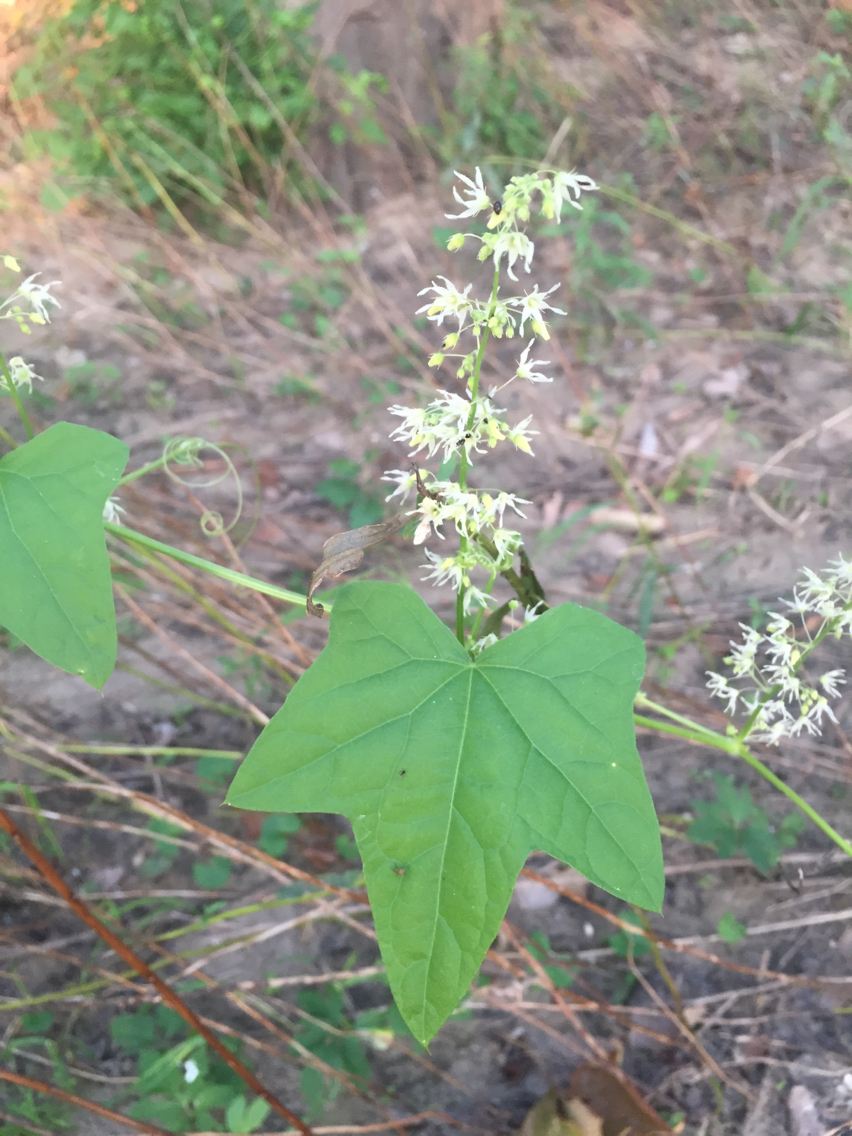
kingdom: Plantae
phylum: Tracheophyta
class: Magnoliopsida
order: Cucurbitales
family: Cucurbitaceae
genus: Echinocystis
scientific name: Echinocystis lobata
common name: Wild cucumber
